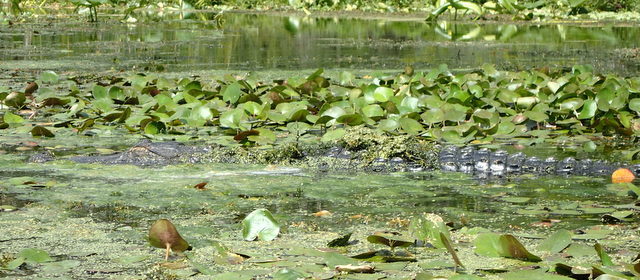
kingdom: Animalia
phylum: Chordata
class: Crocodylia
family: Alligatoridae
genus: Alligator
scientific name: Alligator mississippiensis
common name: American alligator
